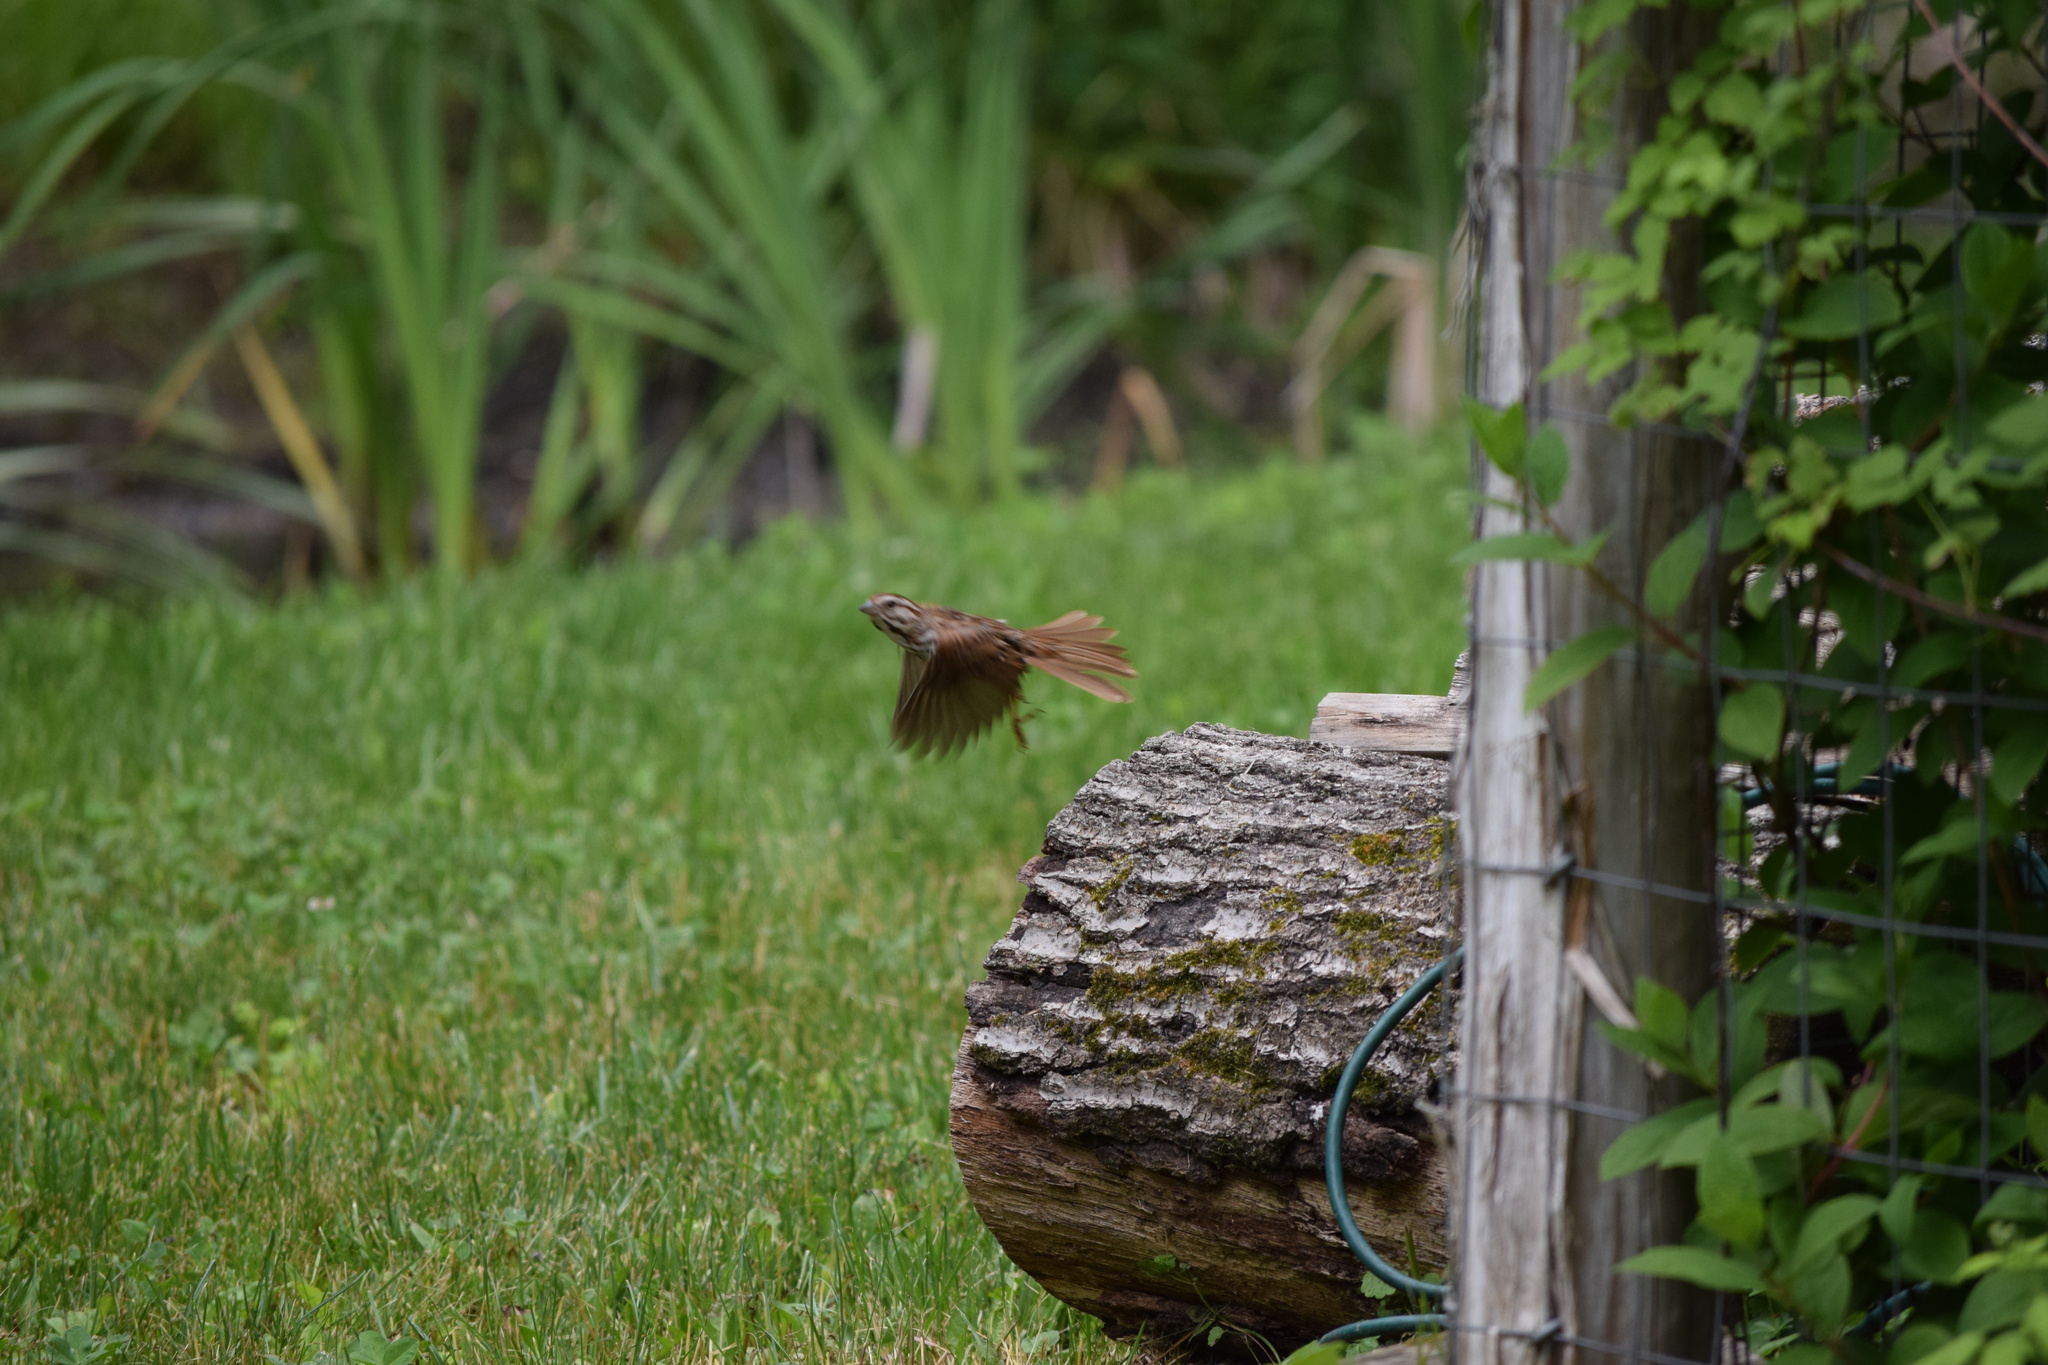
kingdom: Animalia
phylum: Chordata
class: Aves
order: Passeriformes
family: Passerellidae
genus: Melospiza
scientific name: Melospiza melodia
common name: Song sparrow
